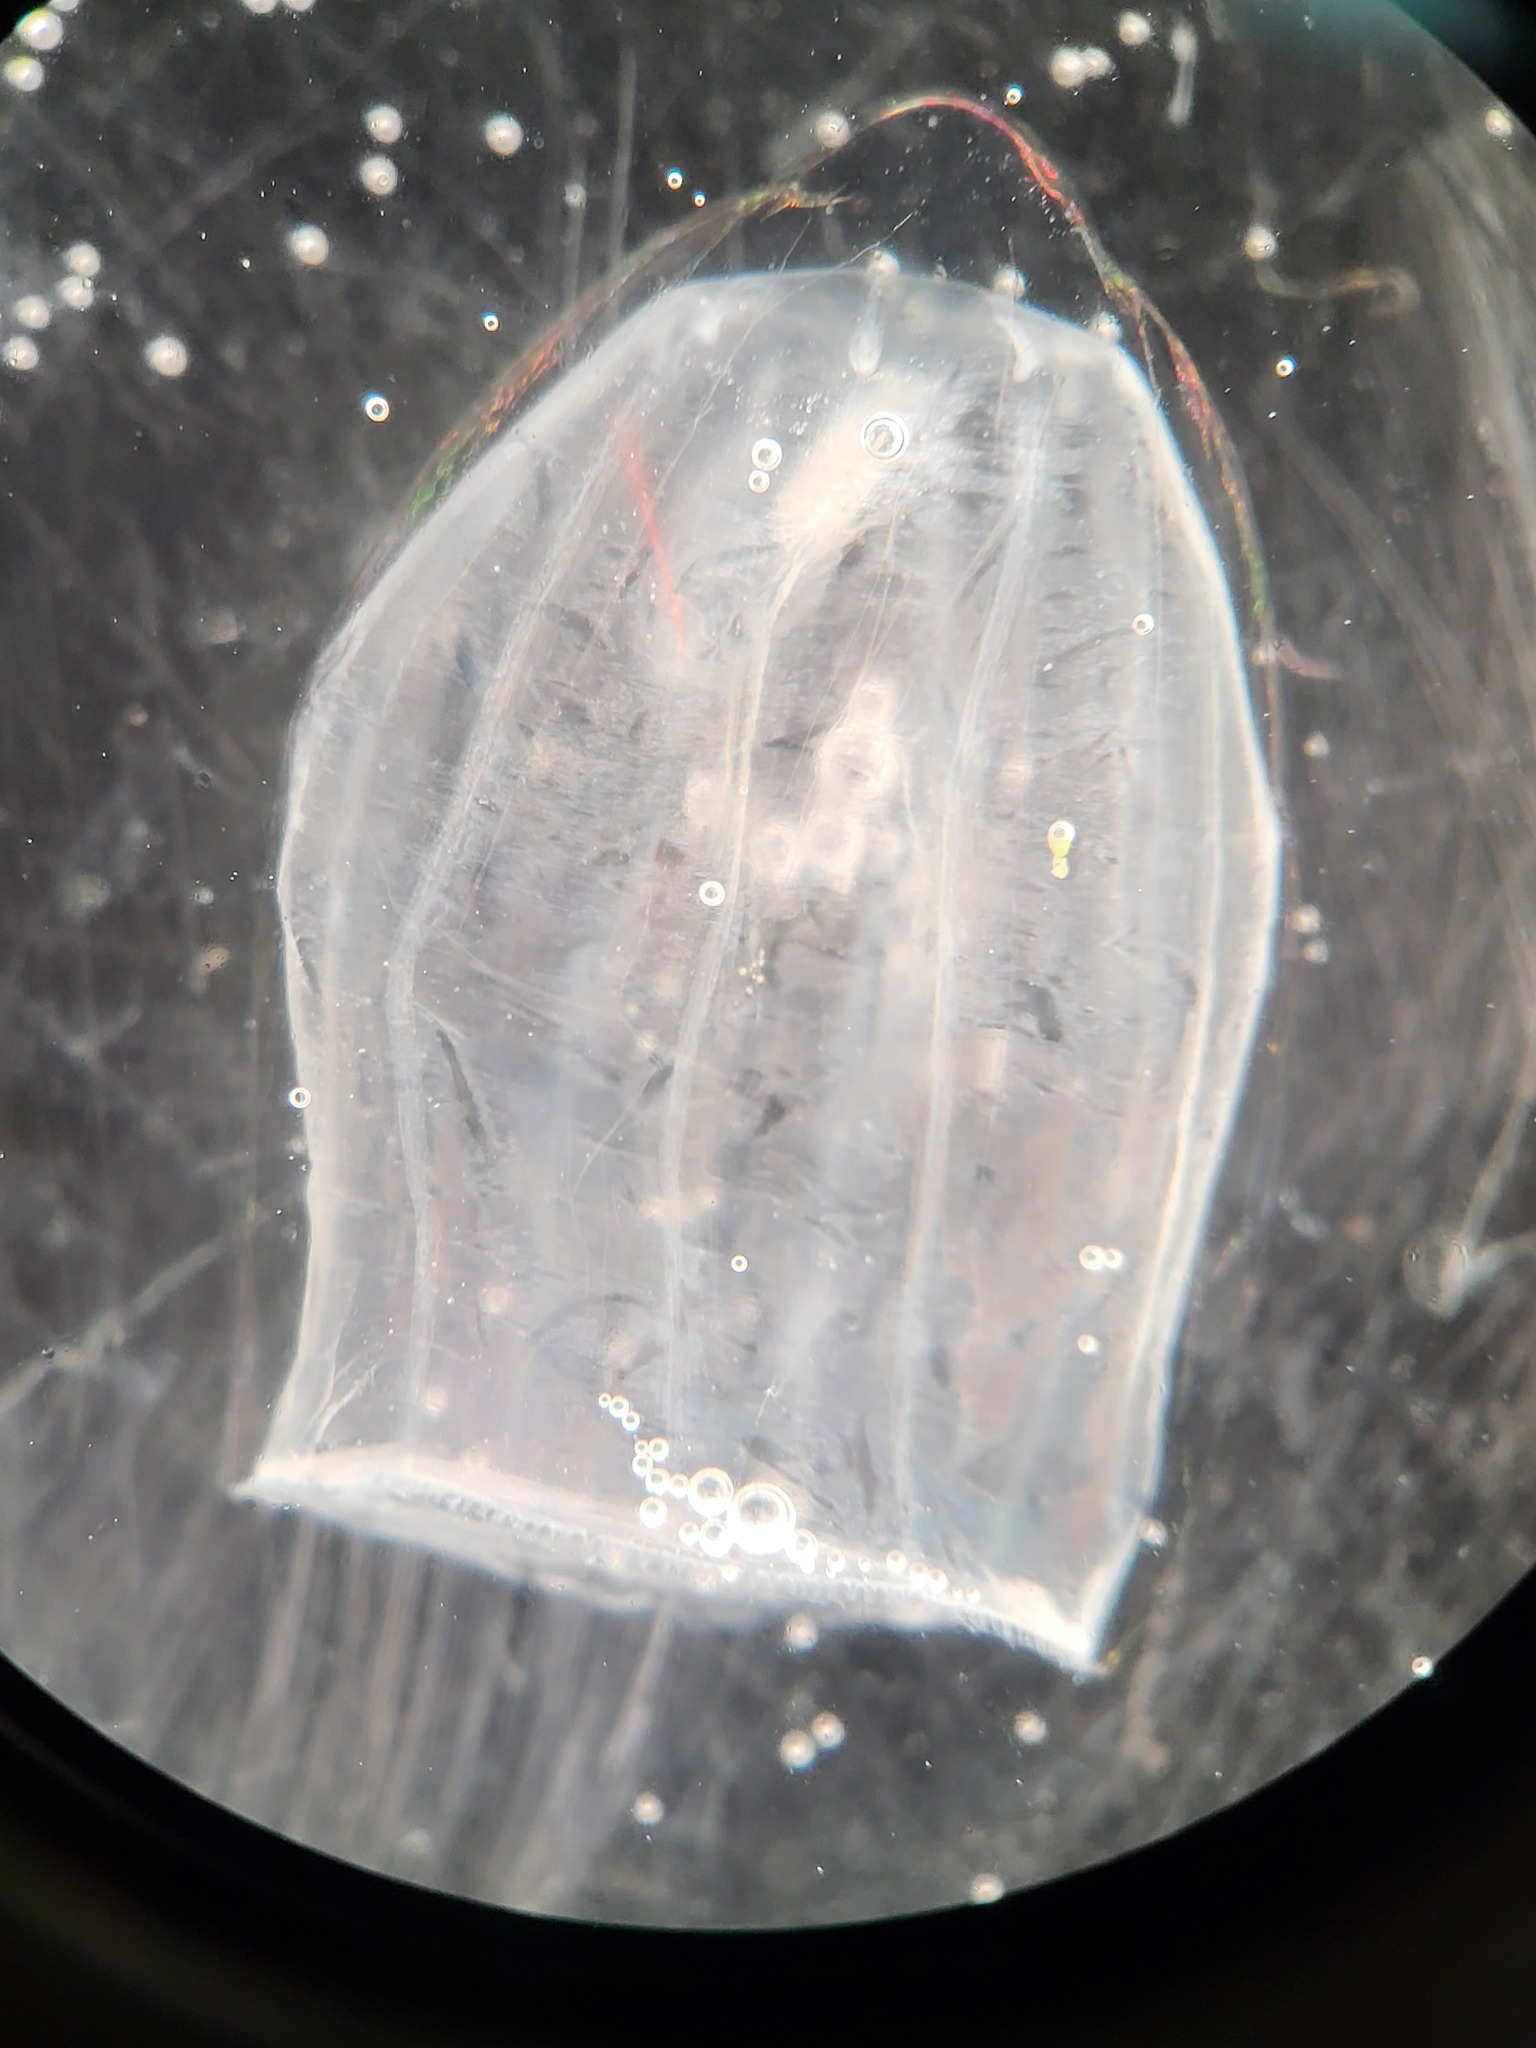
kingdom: Animalia
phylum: Cnidaria
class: Hydrozoa
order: Trachymedusae
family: Rhopalonematidae
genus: Aglantha
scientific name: Aglantha digitale
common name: Pink helmet
